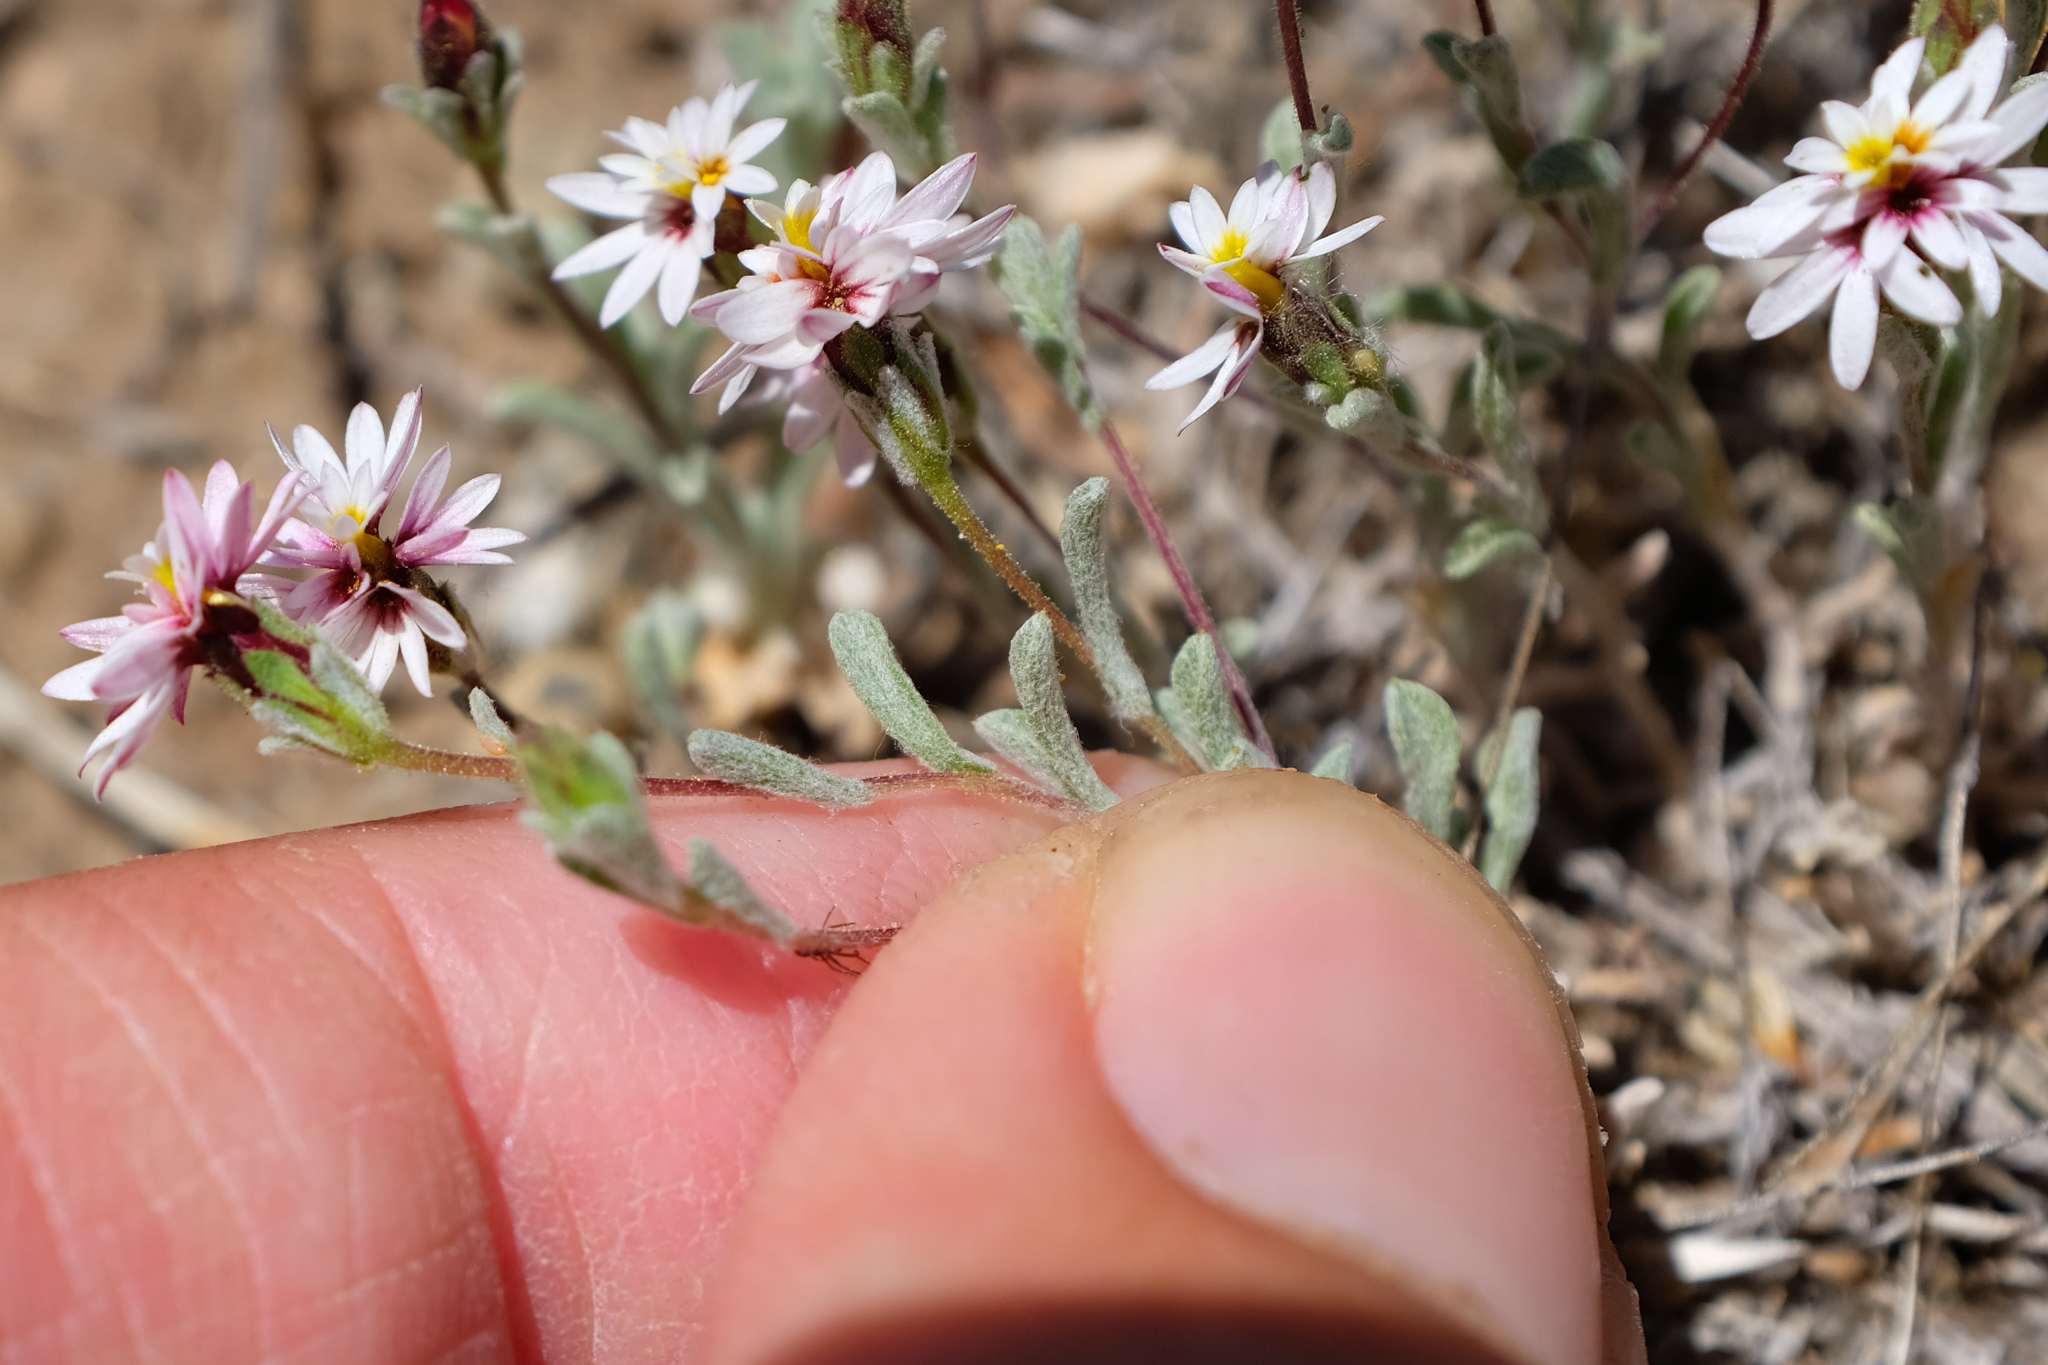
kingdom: Plantae
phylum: Tracheophyta
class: Magnoliopsida
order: Asterales
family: Asteraceae
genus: Lessingia
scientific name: Lessingia tenuis
